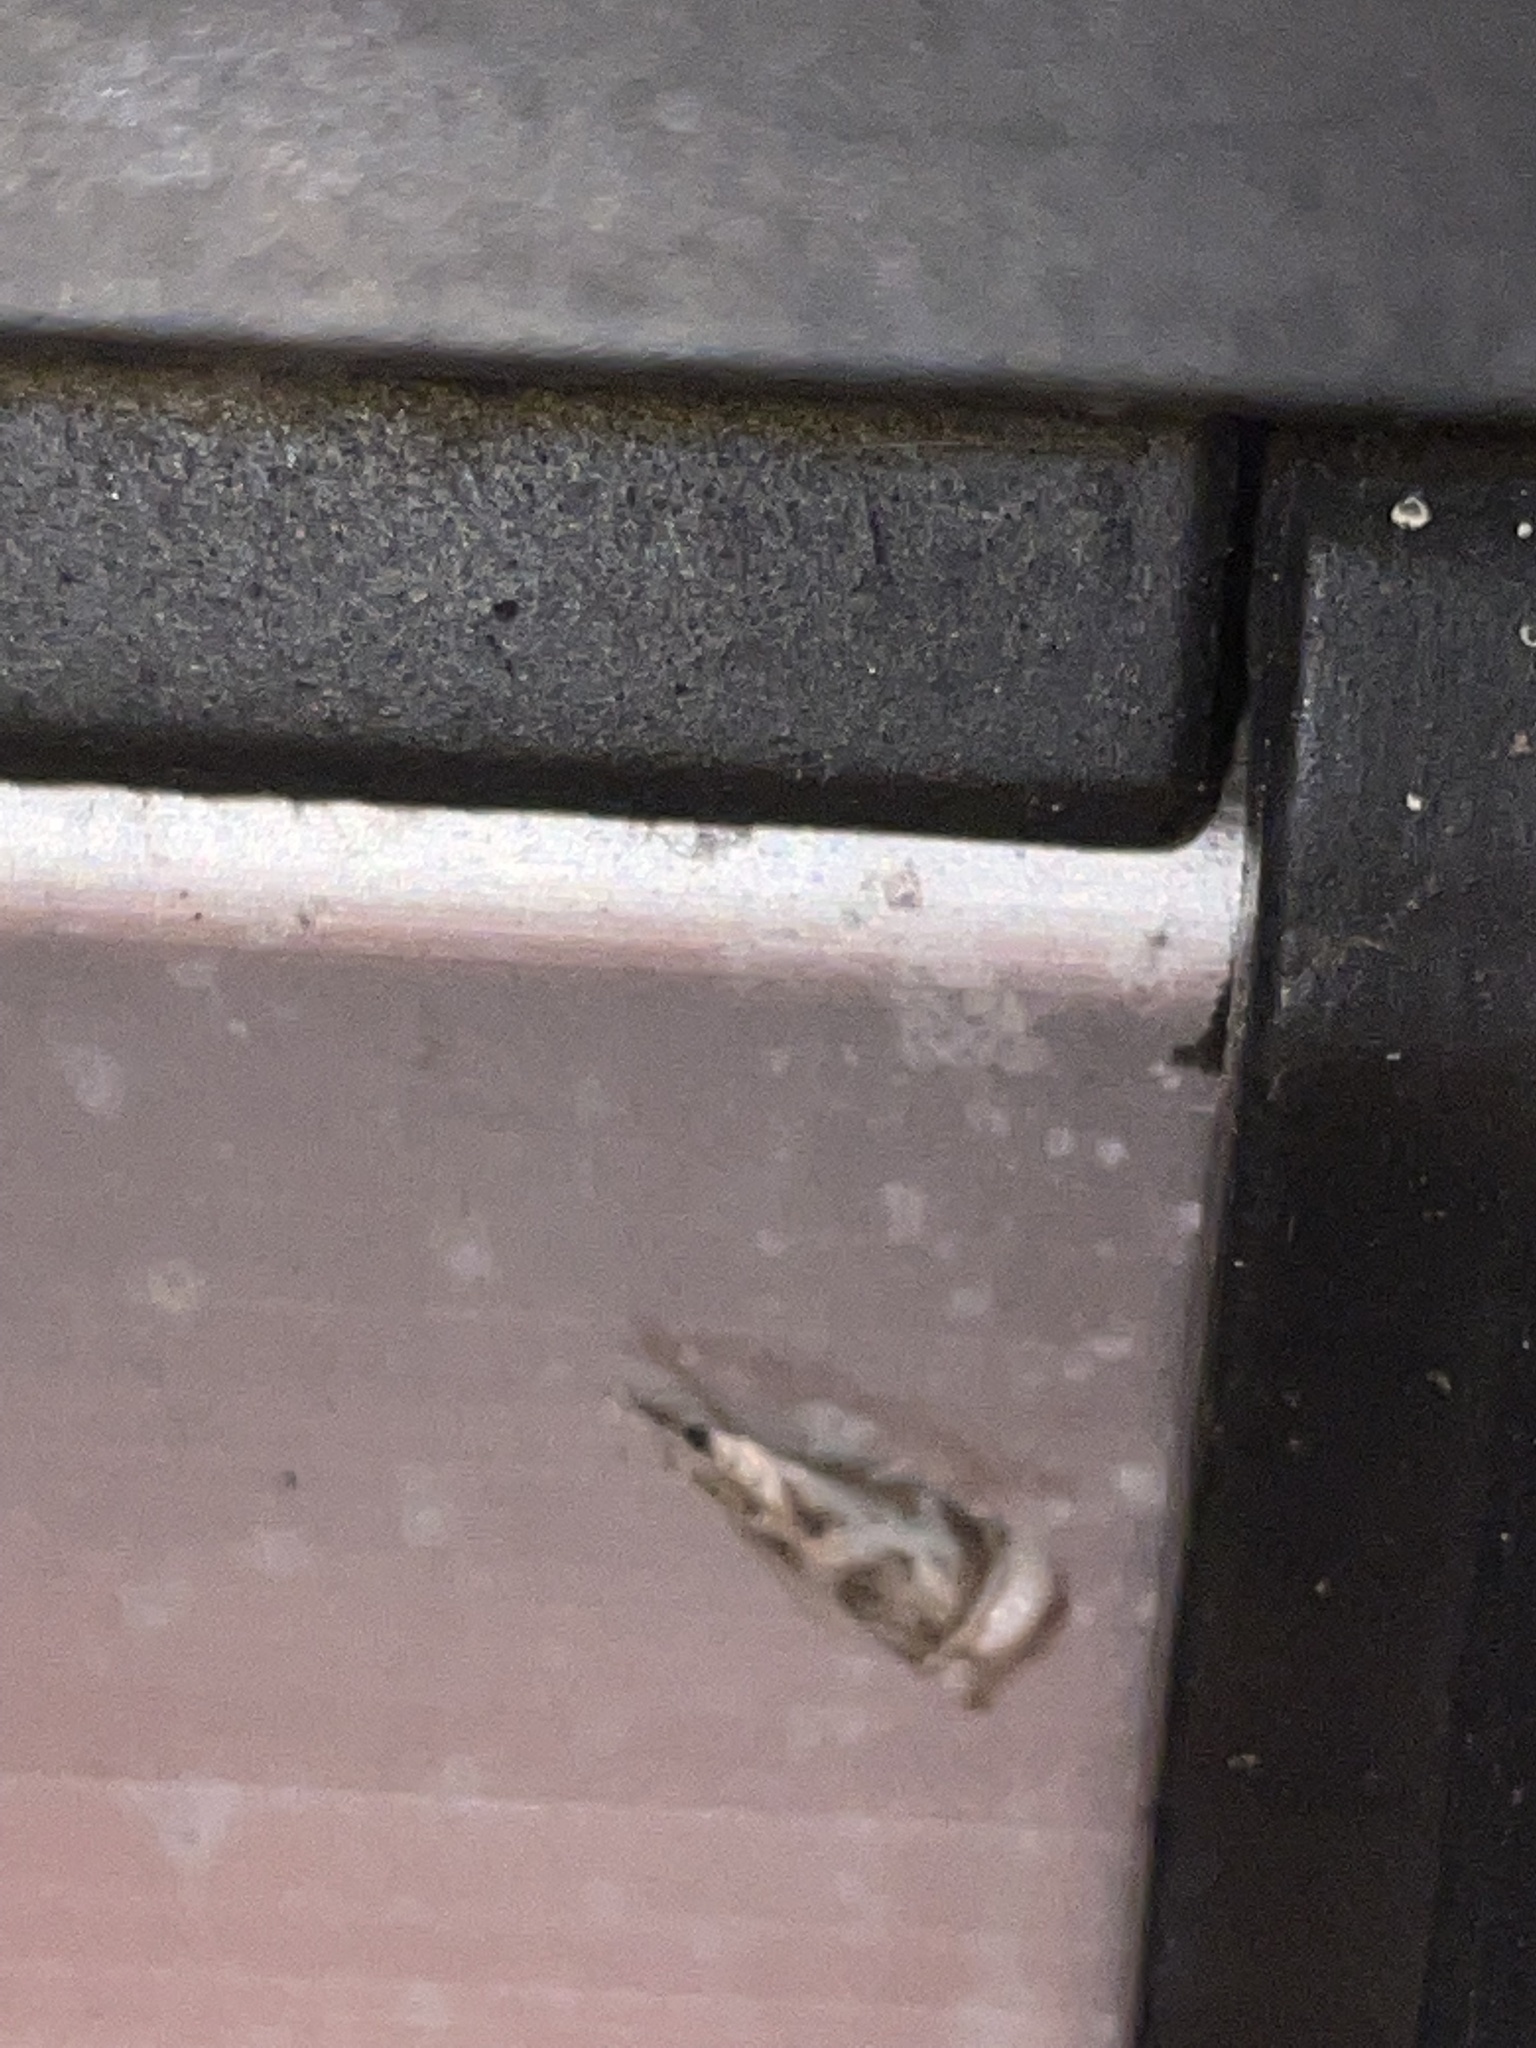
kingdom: Animalia
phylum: Arthropoda
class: Insecta
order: Lepidoptera
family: Crambidae
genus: Microcrambus
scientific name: Microcrambus elegans
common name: Elegant grass-veneer
